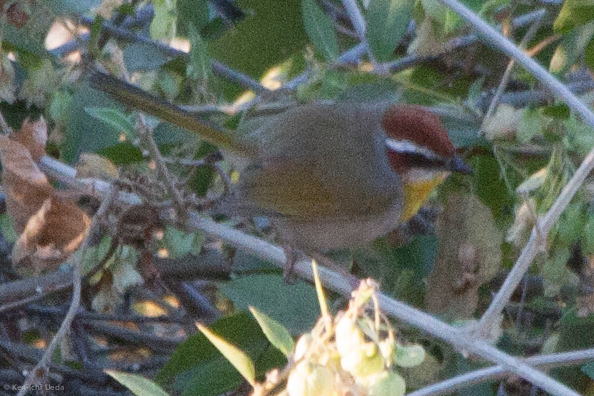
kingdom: Animalia
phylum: Chordata
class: Aves
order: Passeriformes
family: Parulidae
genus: Basileuterus
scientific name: Basileuterus rufifrons
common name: Rufous-capped warbler
